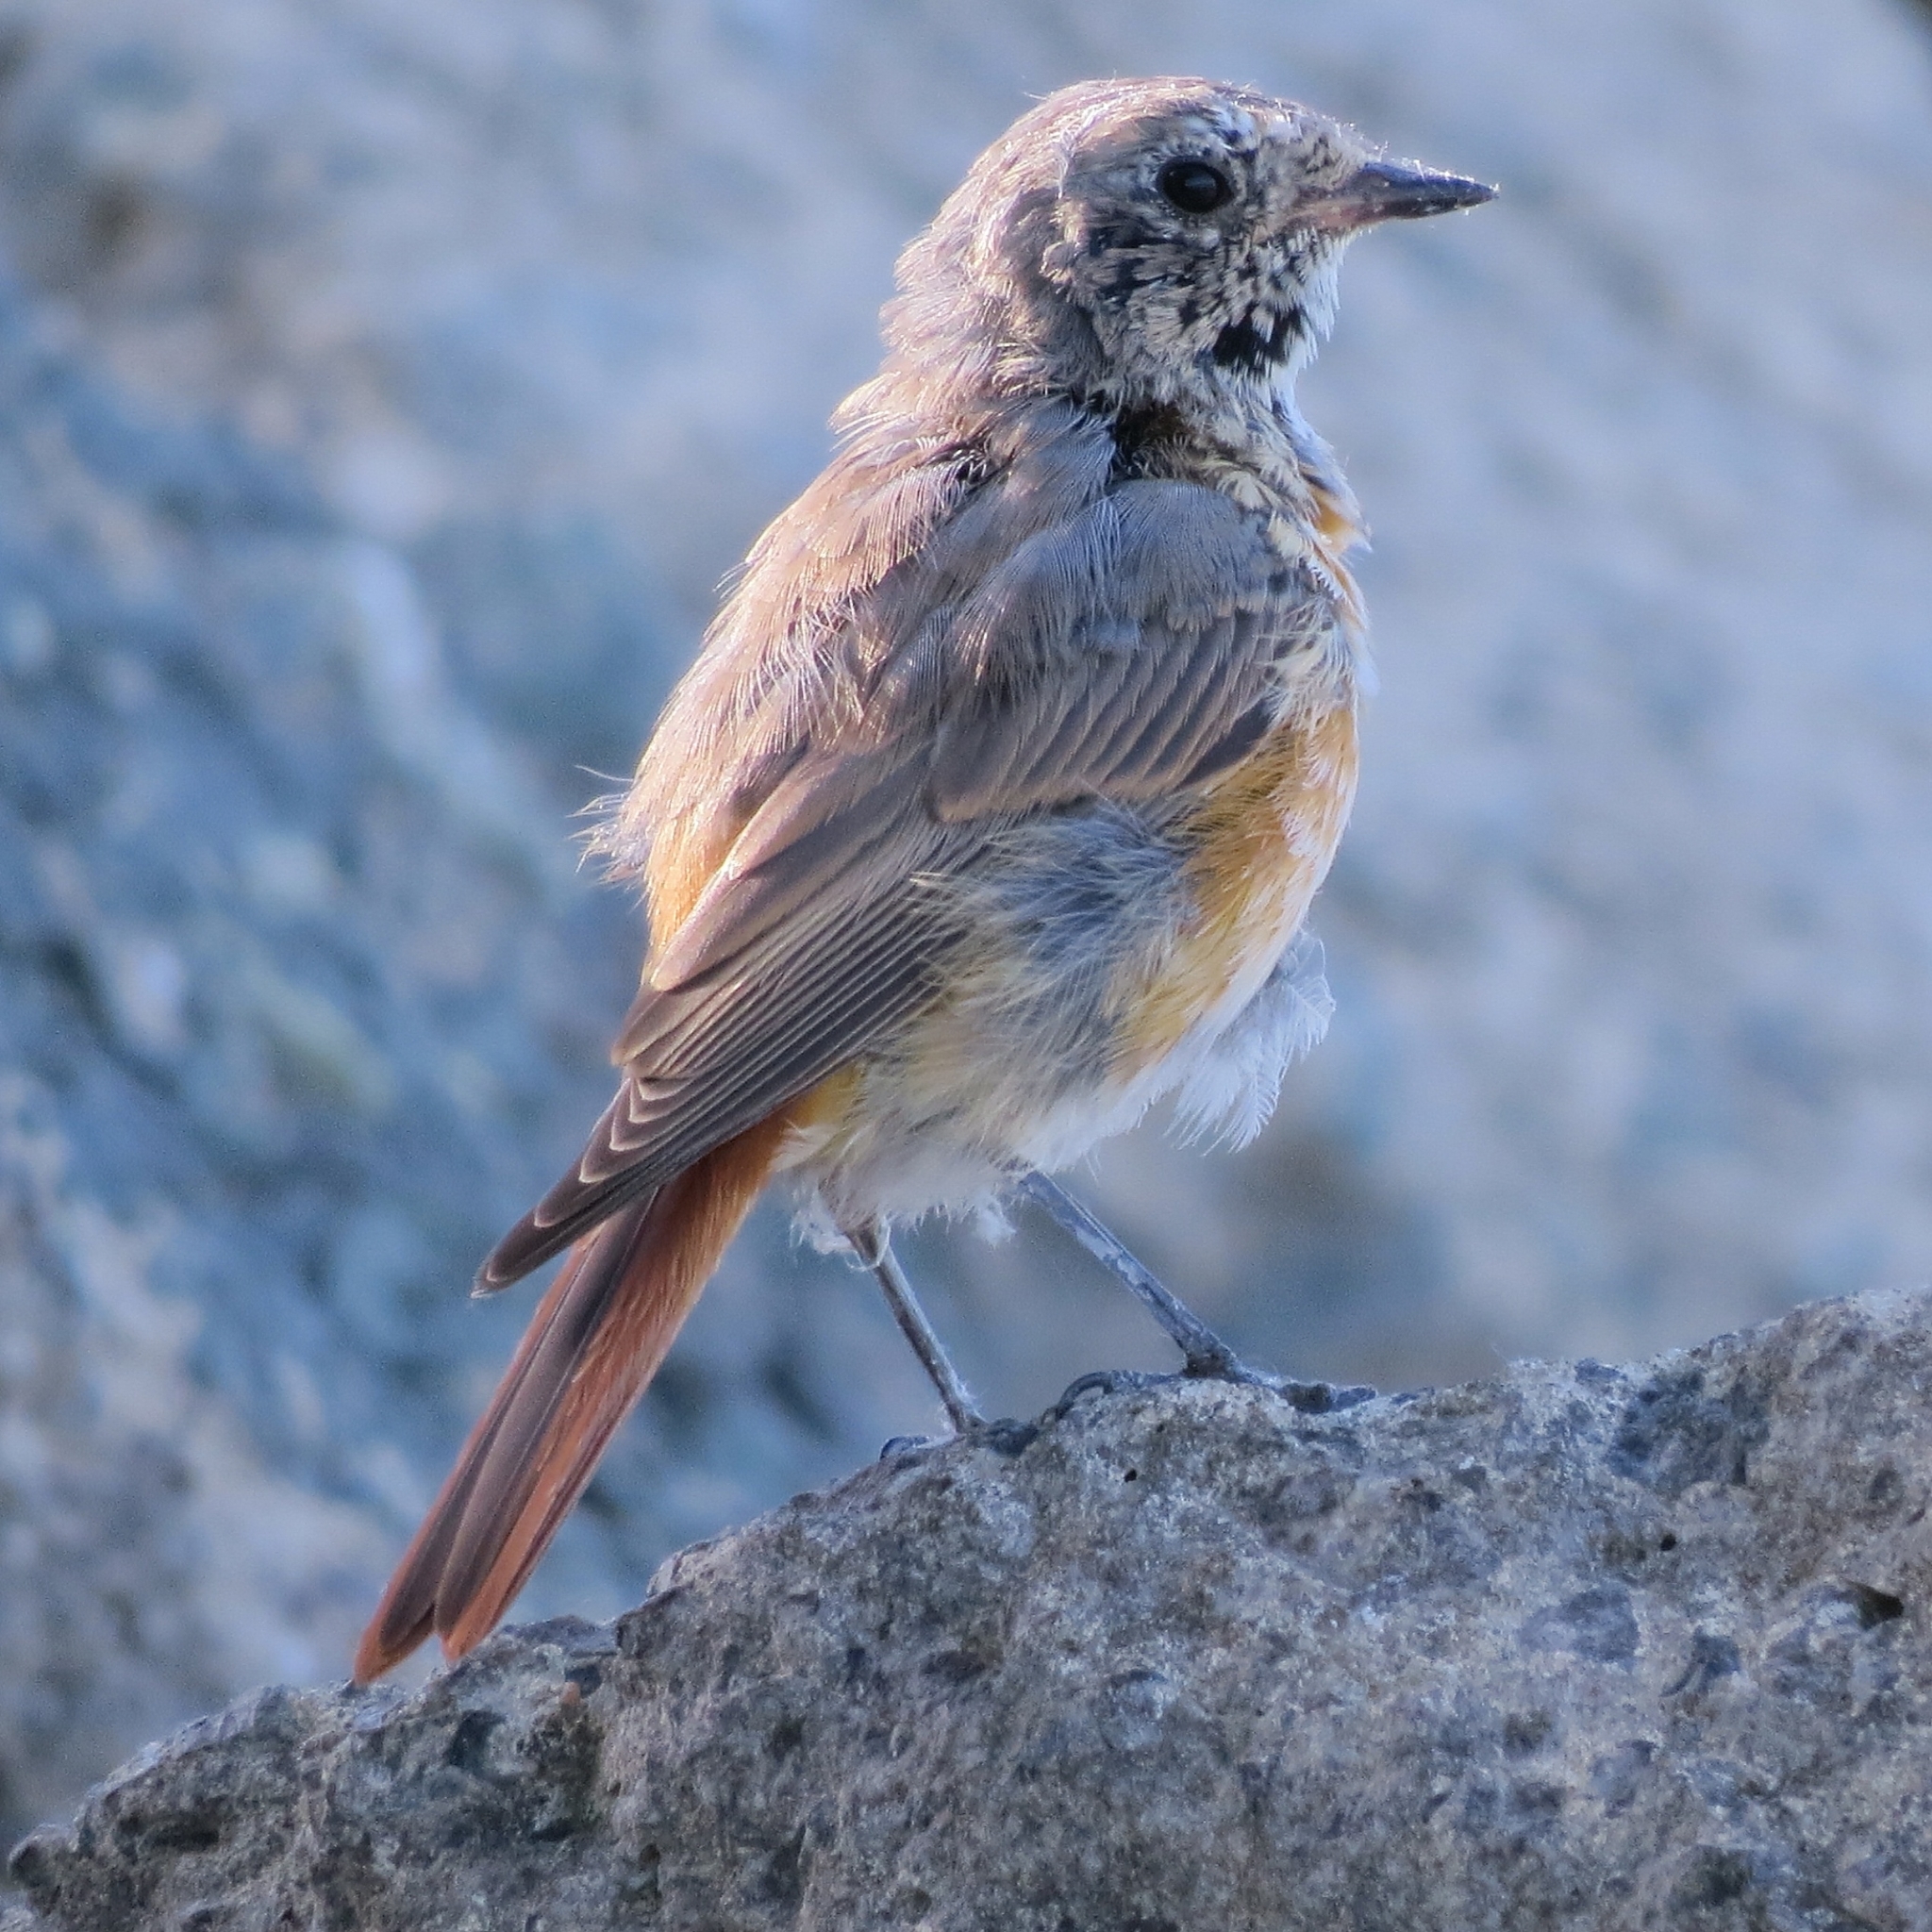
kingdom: Animalia
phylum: Chordata
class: Aves
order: Passeriformes
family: Muscicapidae
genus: Phoenicurus
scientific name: Phoenicurus phoenicurus
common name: Common redstart
